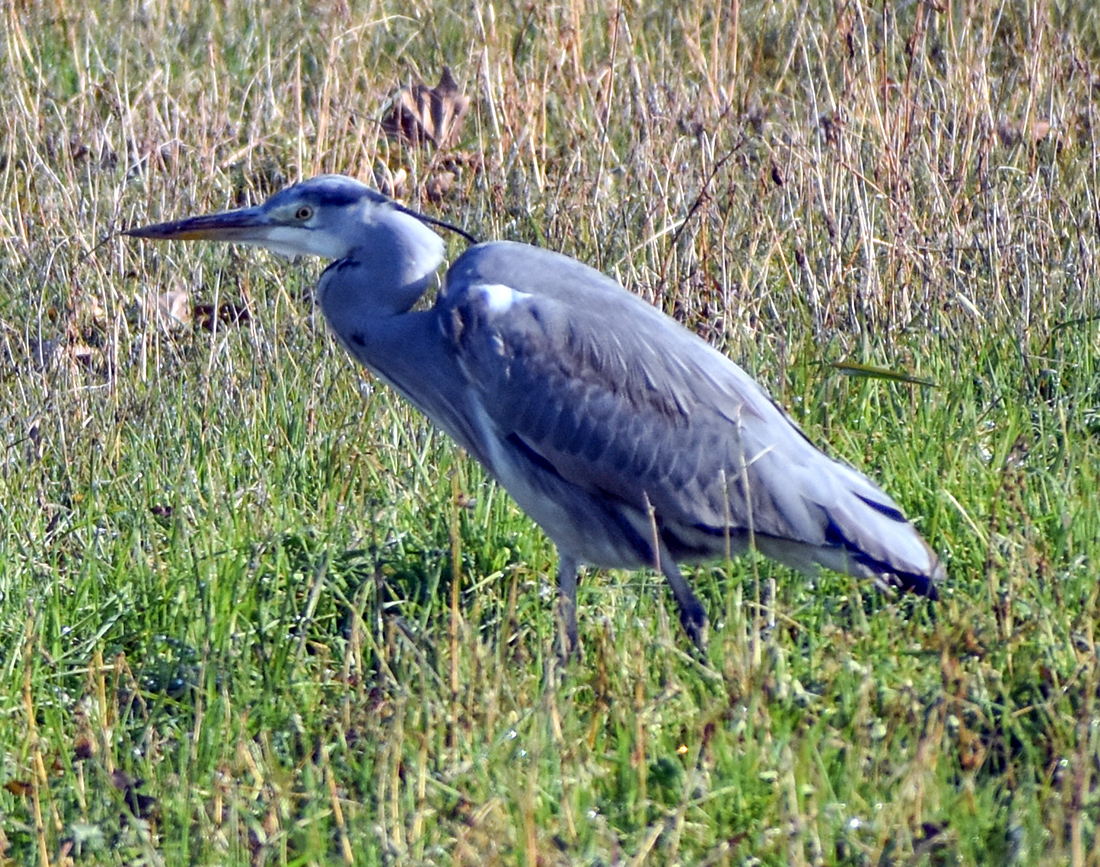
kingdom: Animalia
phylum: Chordata
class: Aves
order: Pelecaniformes
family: Ardeidae
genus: Ardea
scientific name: Ardea cinerea
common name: Grey heron
